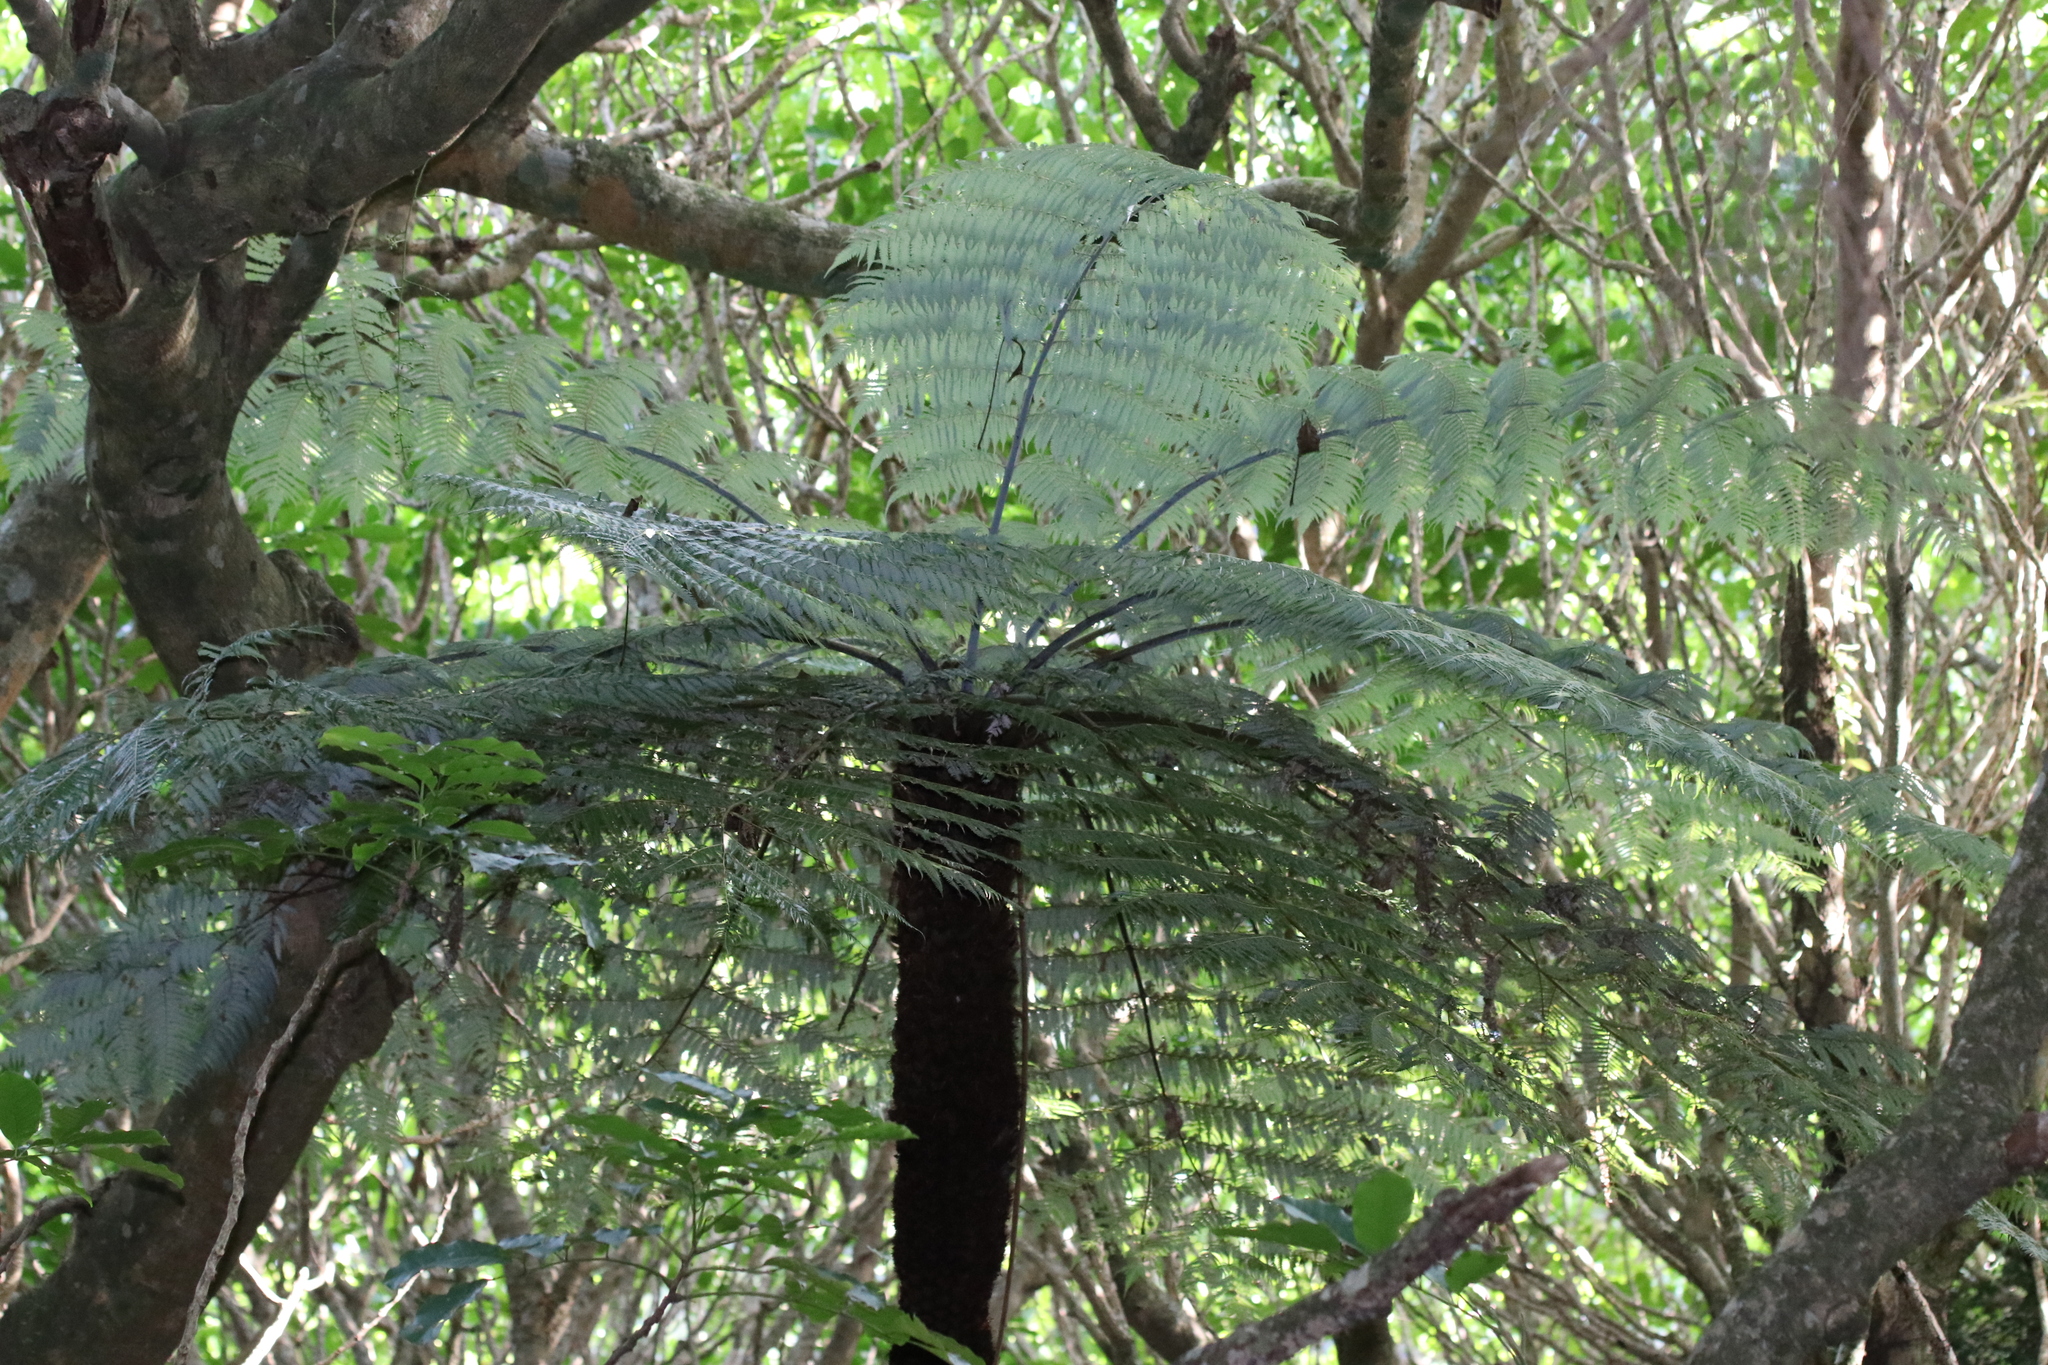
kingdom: Plantae
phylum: Tracheophyta
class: Polypodiopsida
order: Cyatheales
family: Cyatheaceae
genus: Alsophila
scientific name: Alsophila dealbata
